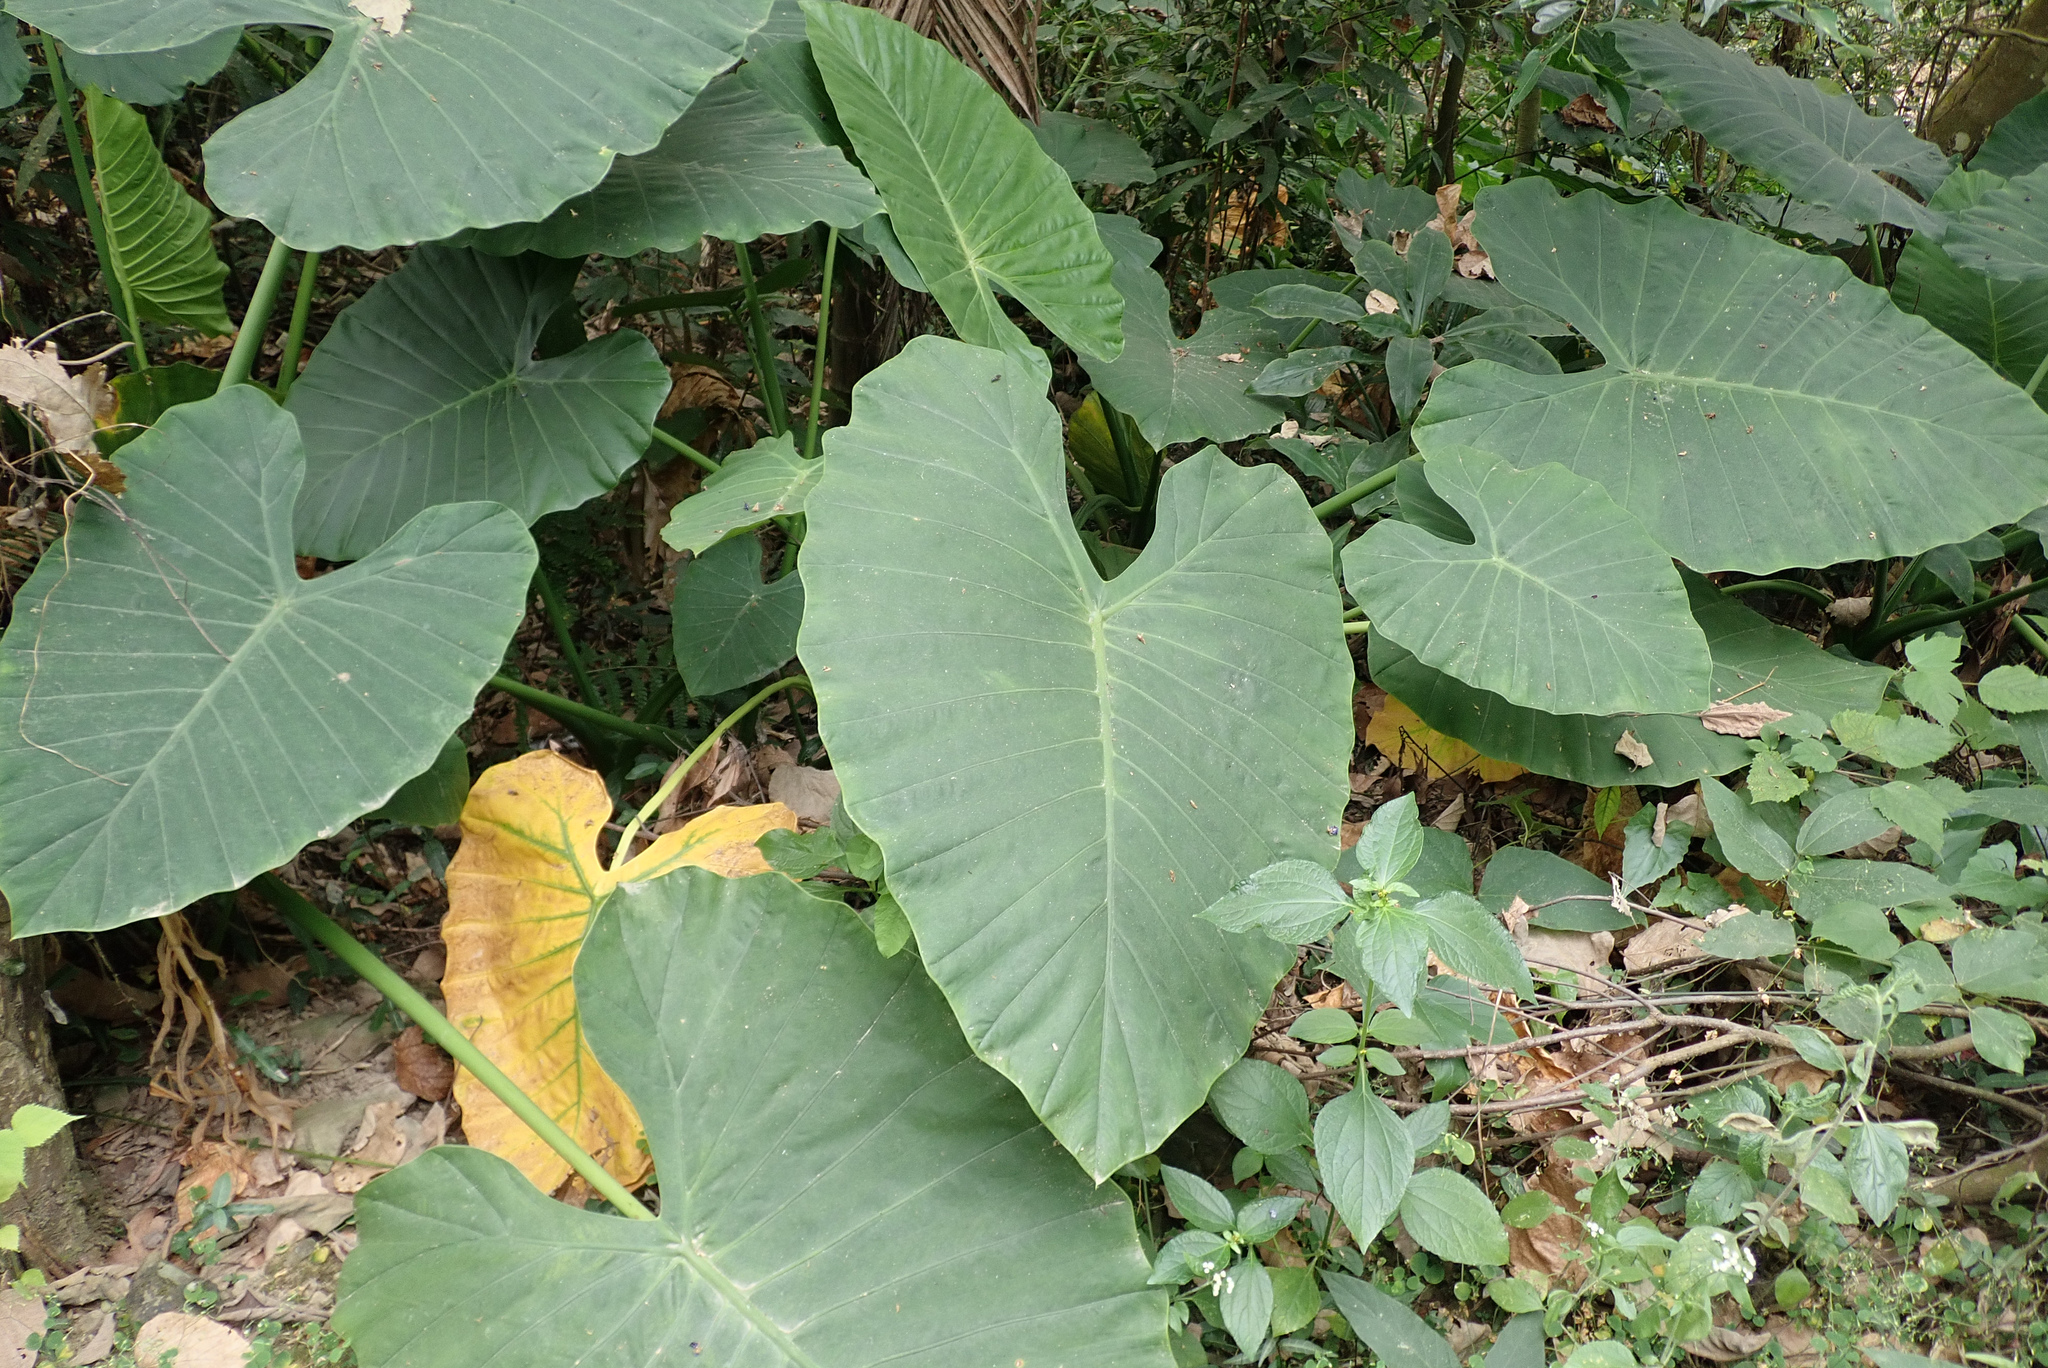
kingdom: Plantae
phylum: Tracheophyta
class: Liliopsida
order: Alismatales
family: Araceae
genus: Alocasia
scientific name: Alocasia odora
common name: Asian taro
